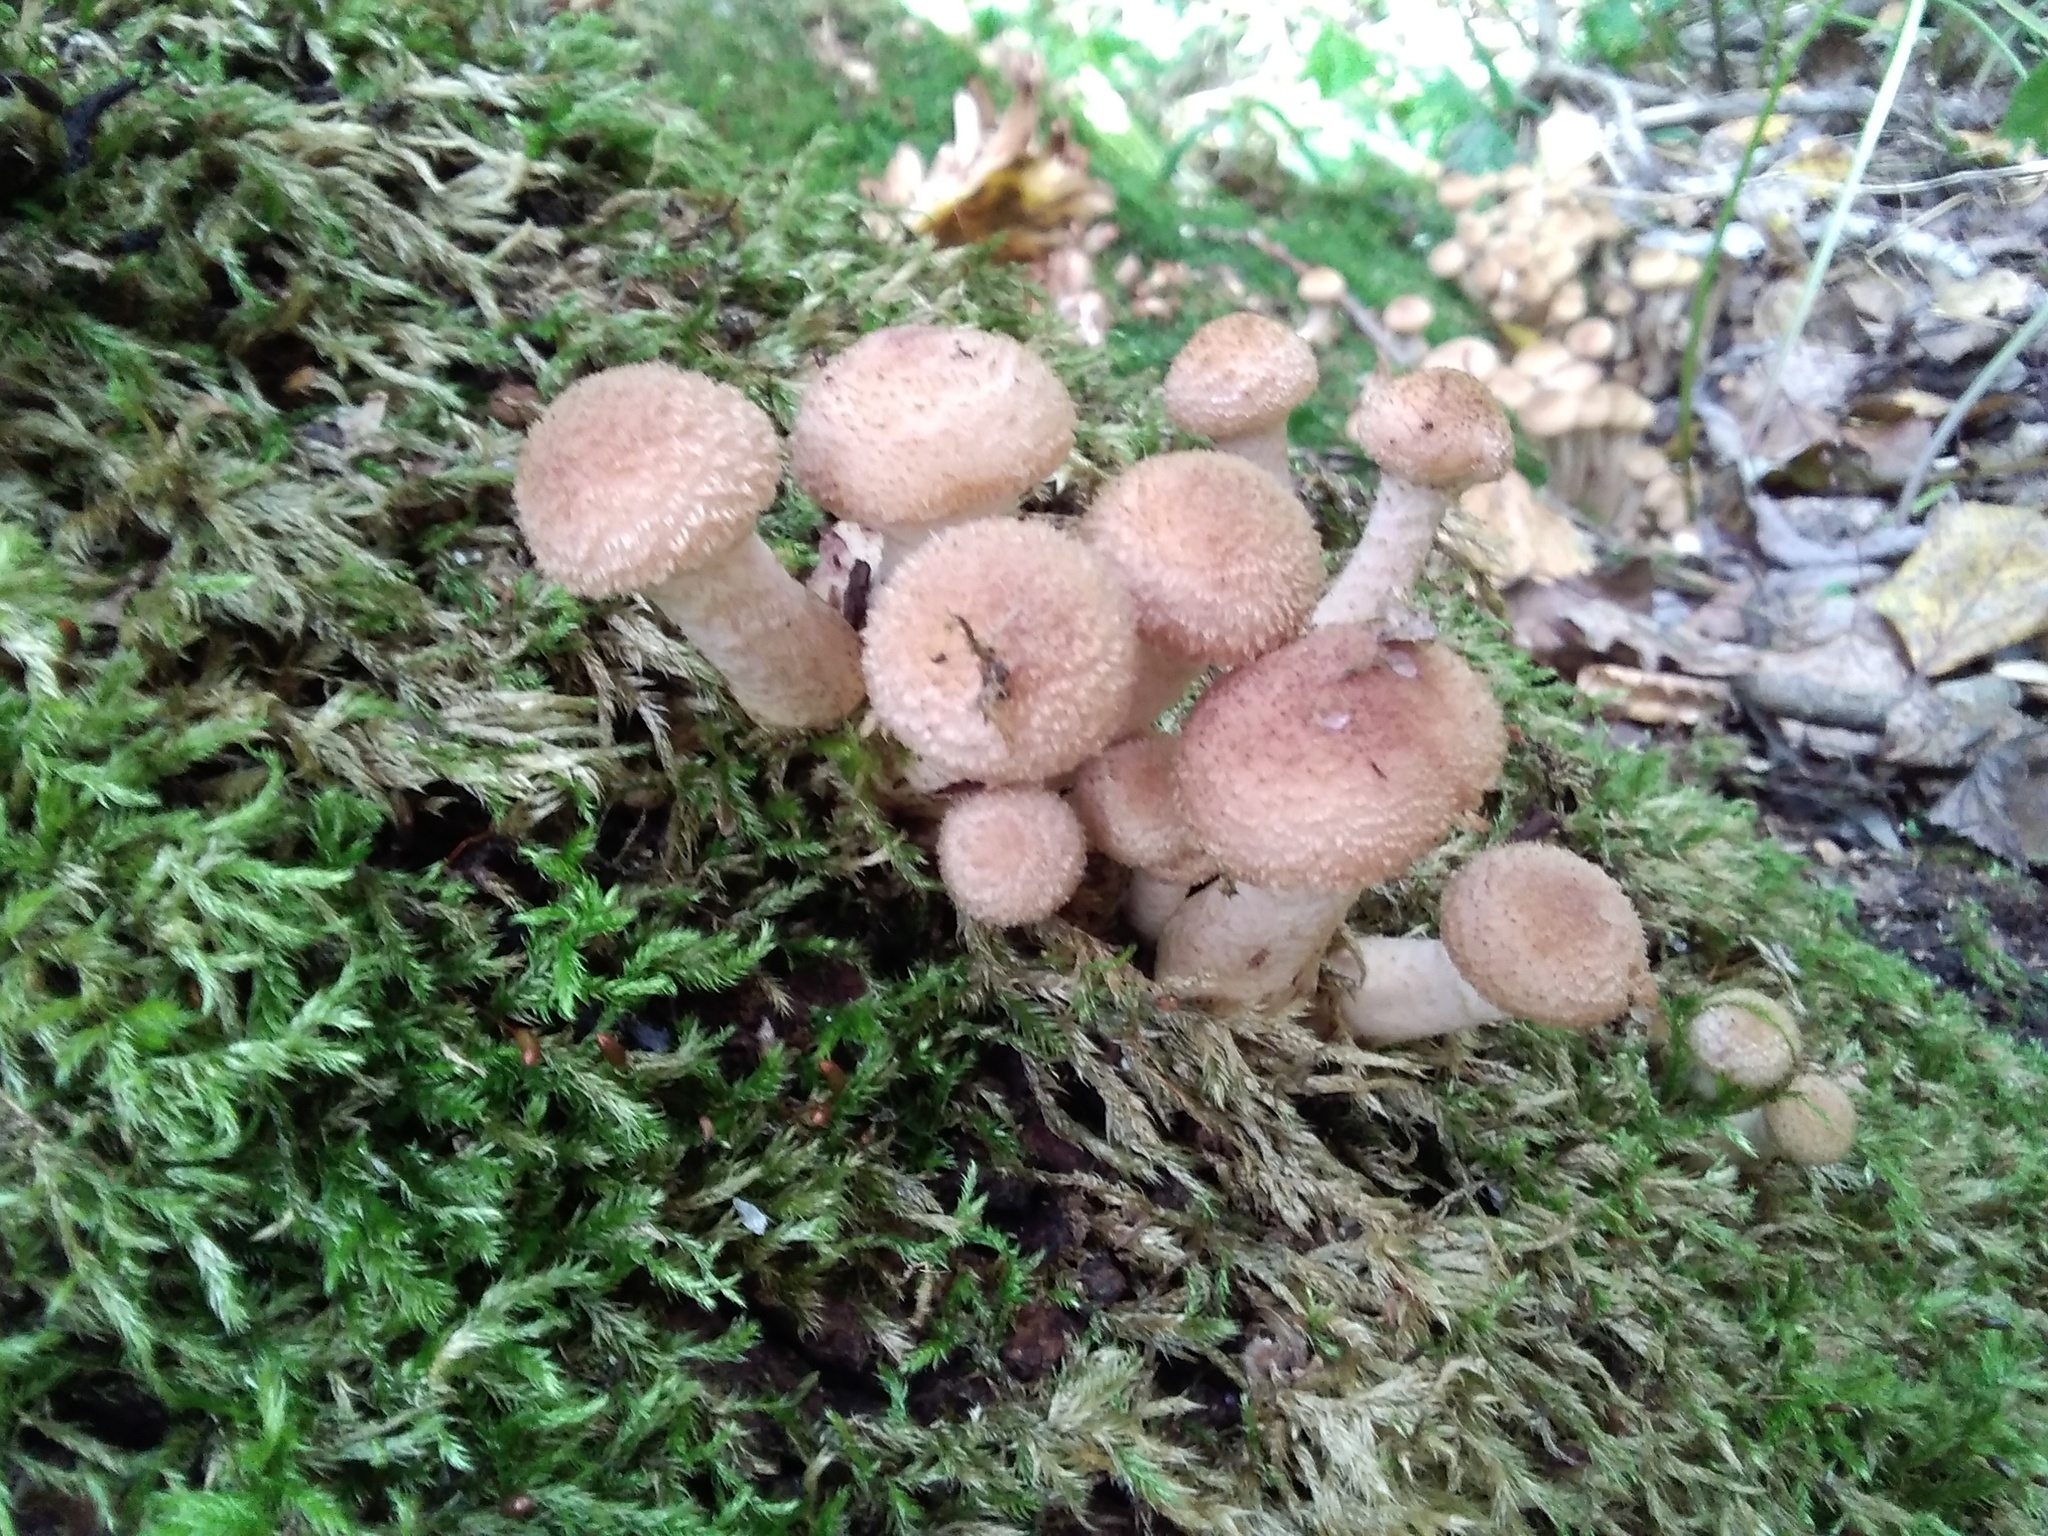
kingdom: Fungi
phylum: Basidiomycota
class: Agaricomycetes
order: Agaricales
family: Physalacriaceae
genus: Armillaria
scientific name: Armillaria mellea
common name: Honey fungus
